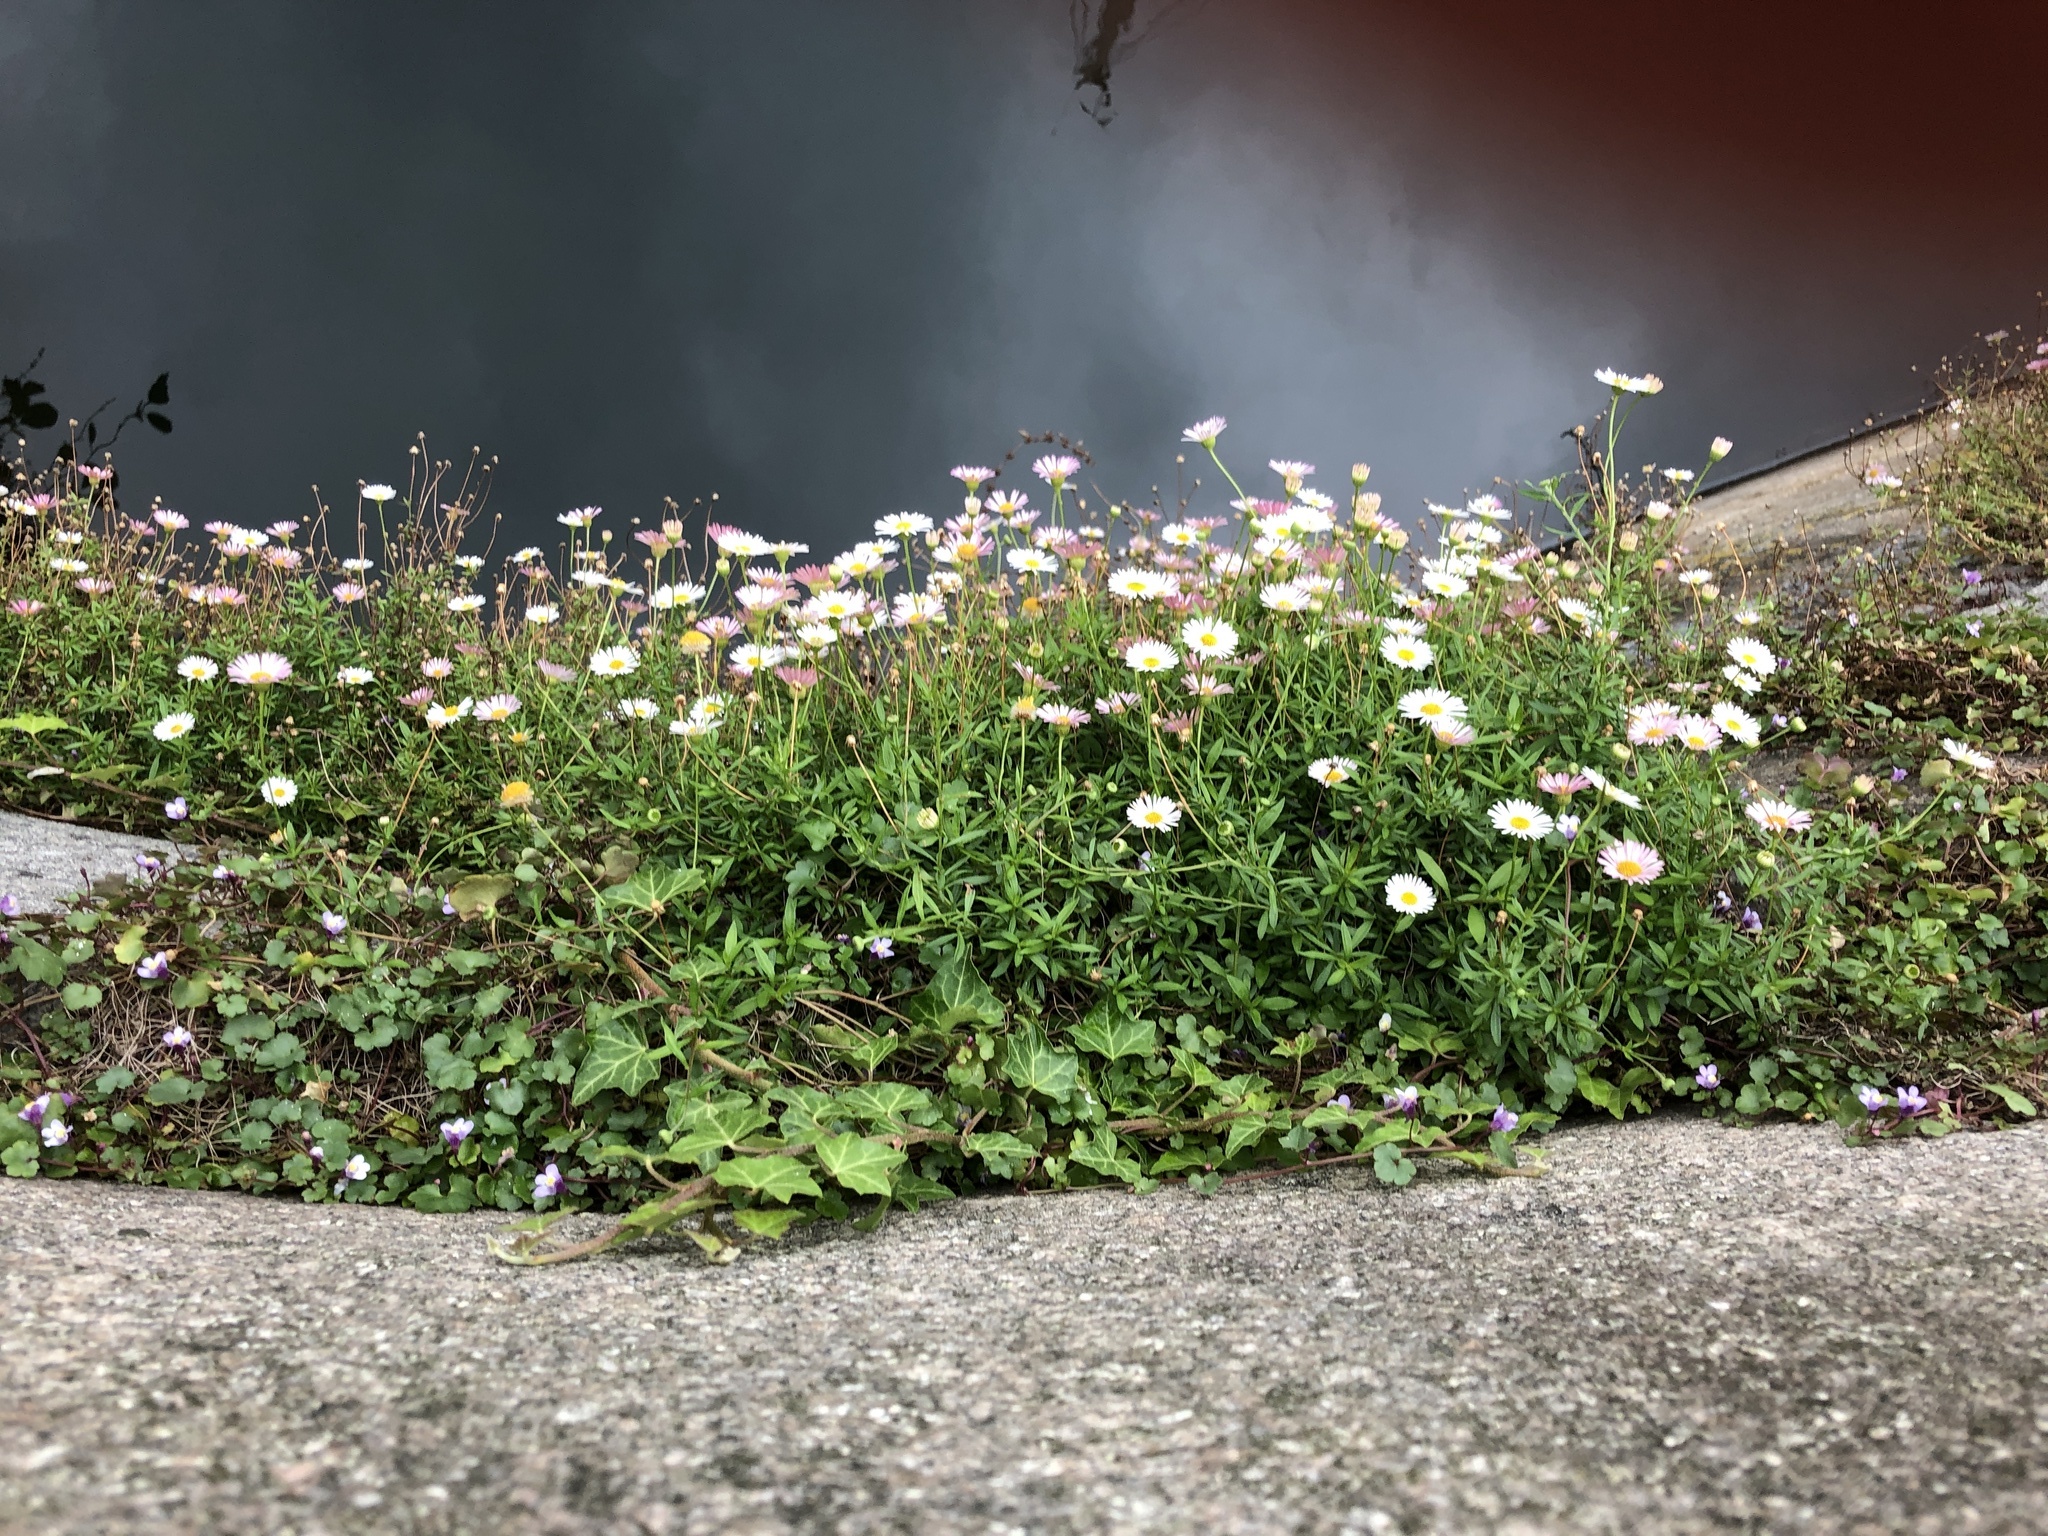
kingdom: Plantae
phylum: Tracheophyta
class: Magnoliopsida
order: Asterales
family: Asteraceae
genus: Erigeron
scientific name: Erigeron karvinskianus
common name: Mexican fleabane
